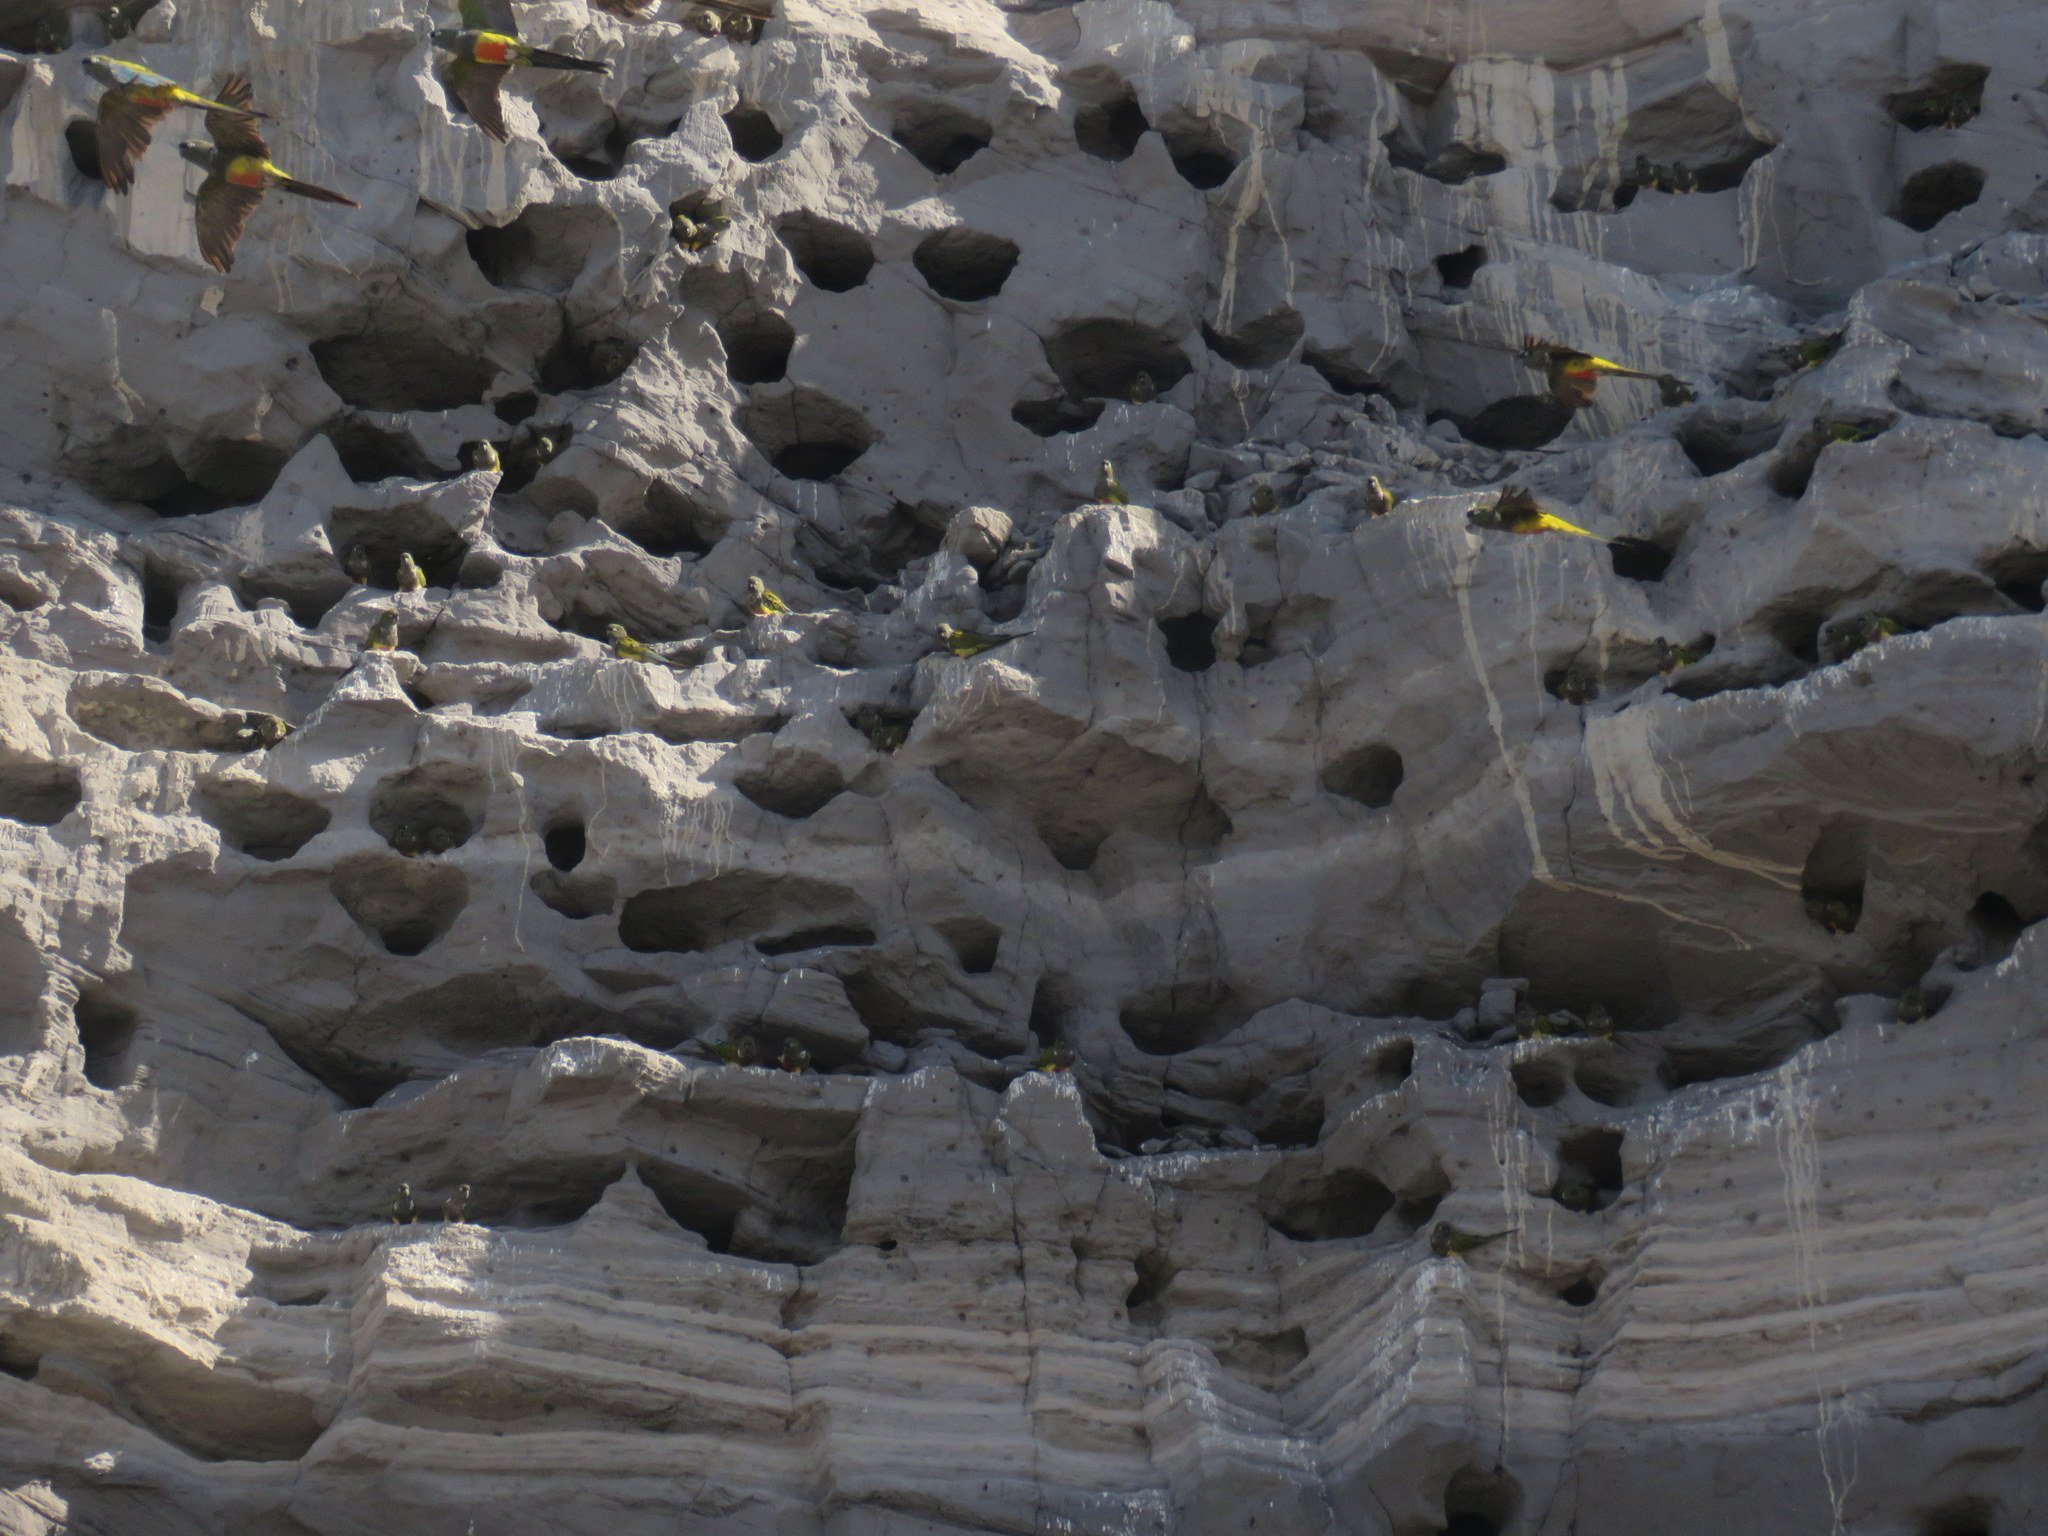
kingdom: Animalia
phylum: Chordata
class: Aves
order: Psittaciformes
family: Psittacidae
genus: Cyanoliseus
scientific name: Cyanoliseus patagonus
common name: Burrowing parrot
